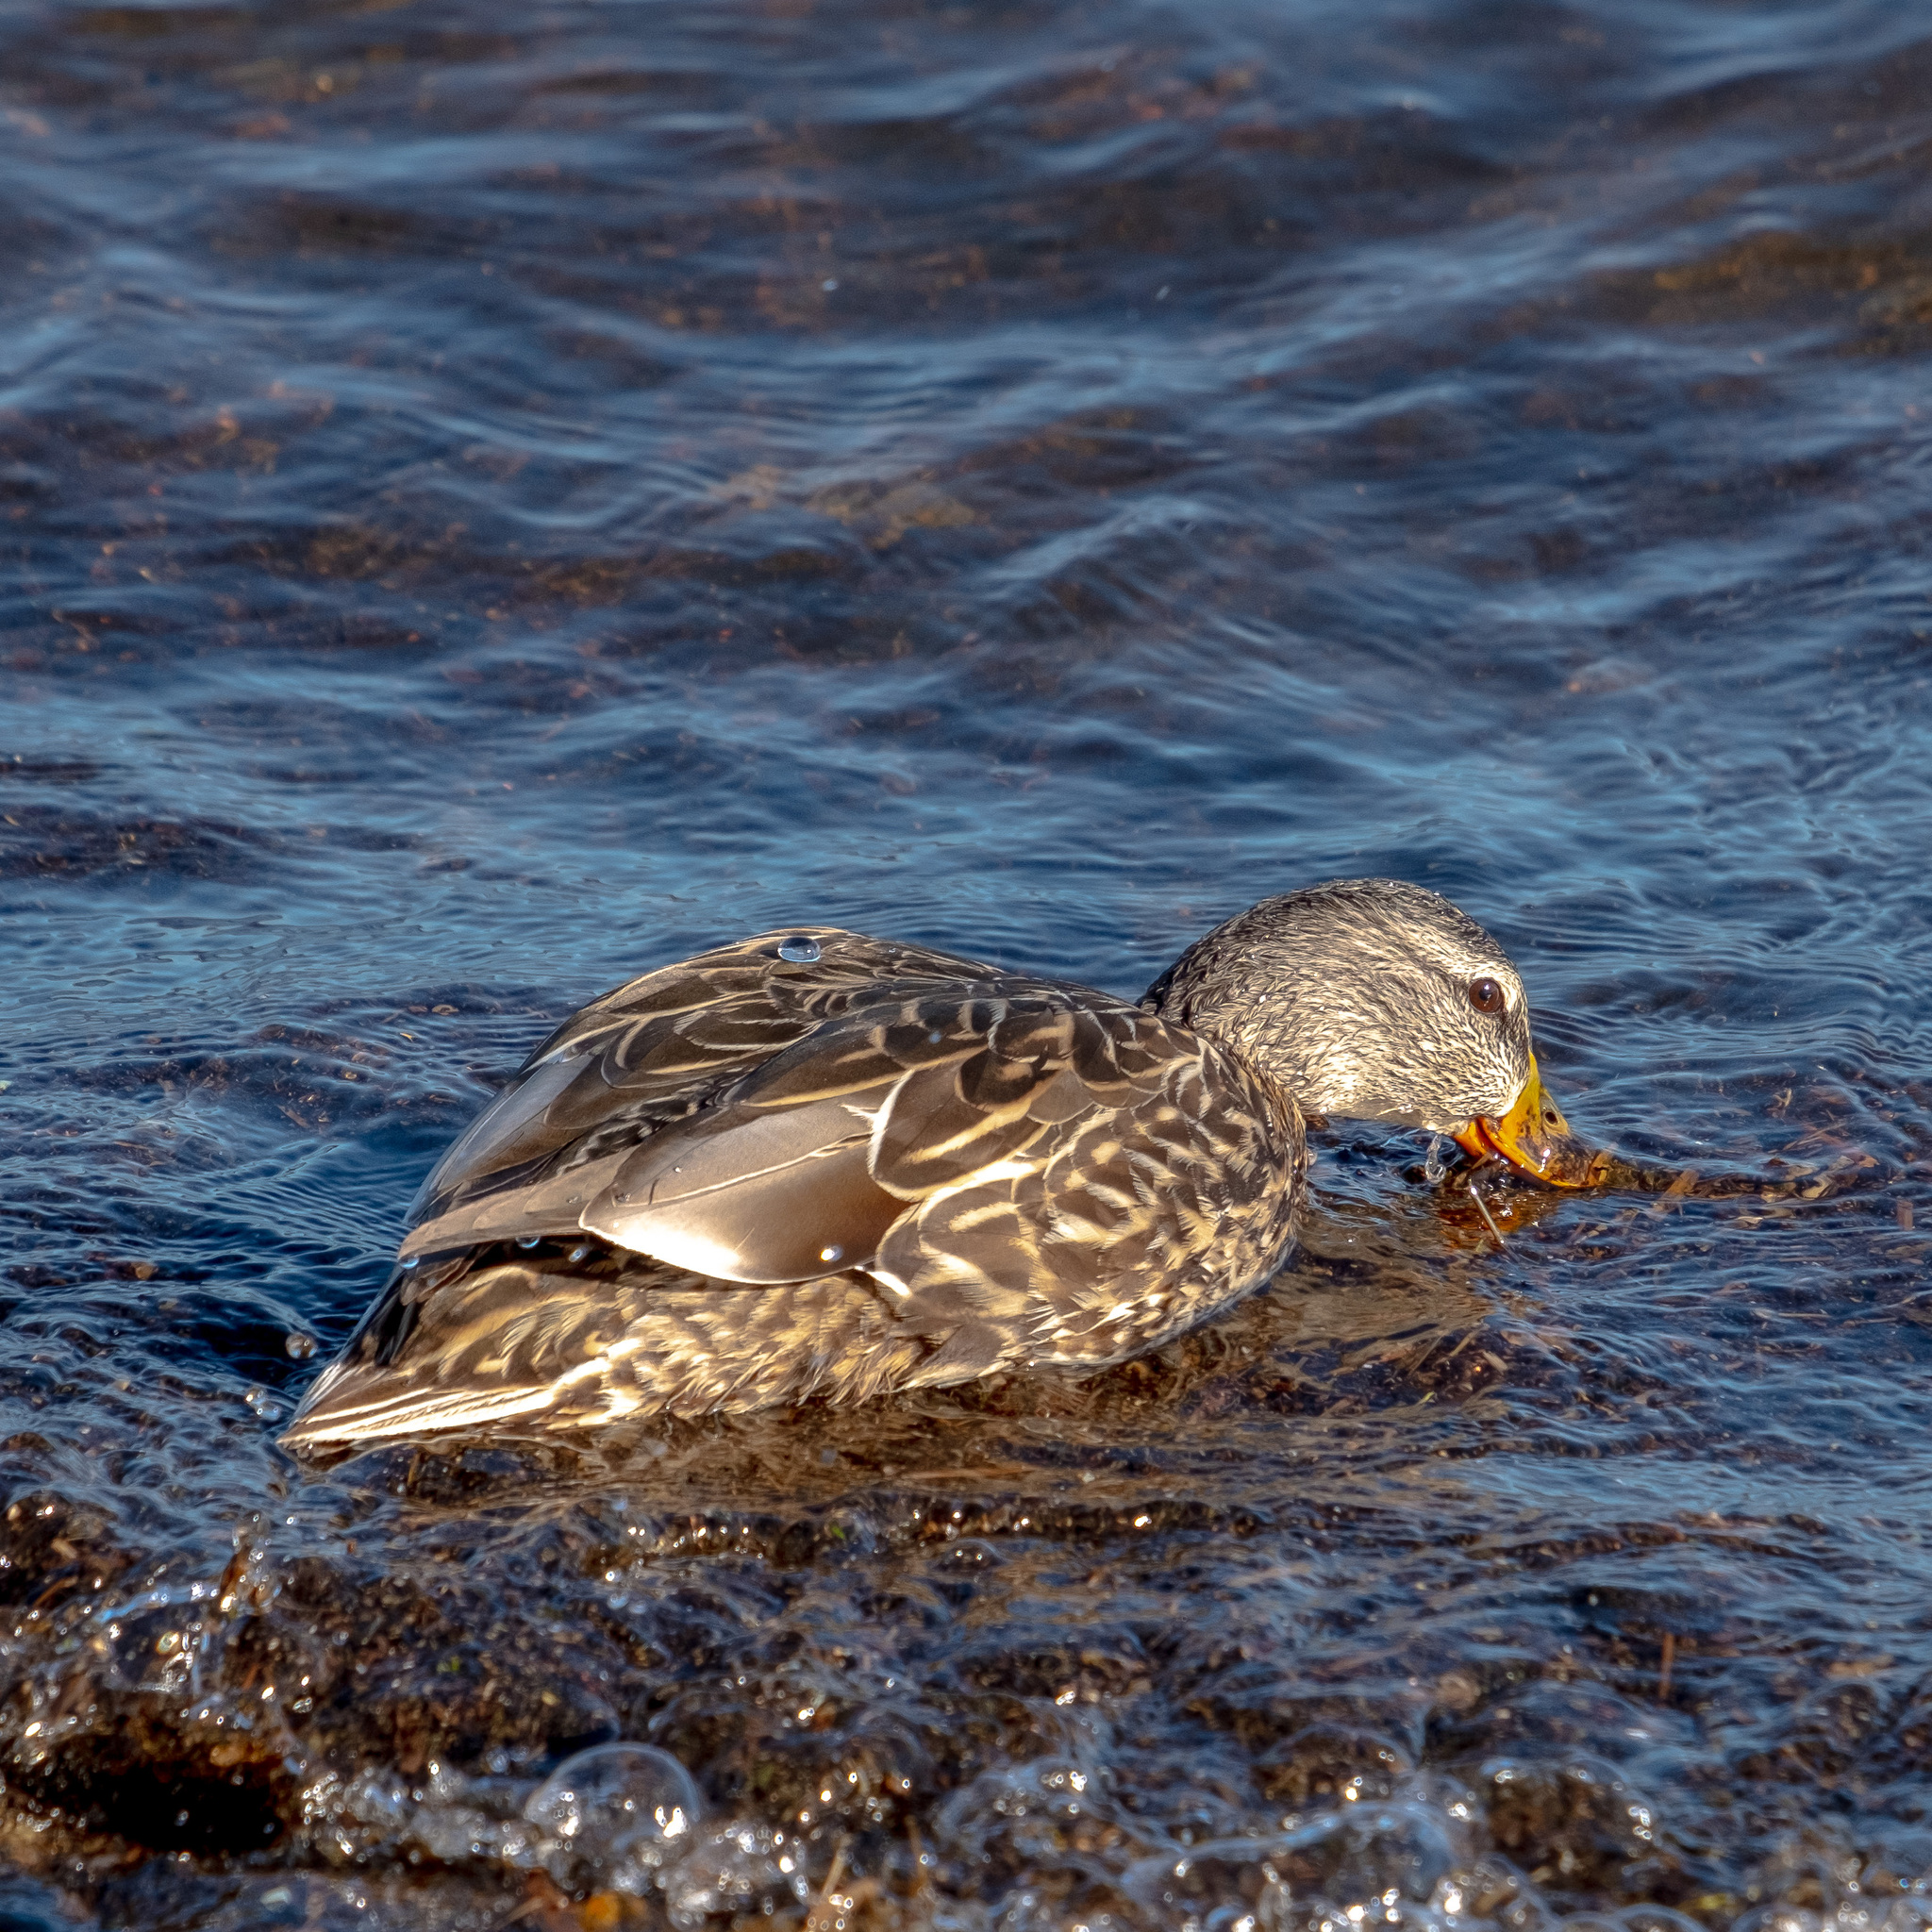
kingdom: Animalia
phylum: Chordata
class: Aves
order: Anseriformes
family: Anatidae
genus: Anas
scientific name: Anas platyrhynchos
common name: Mallard
